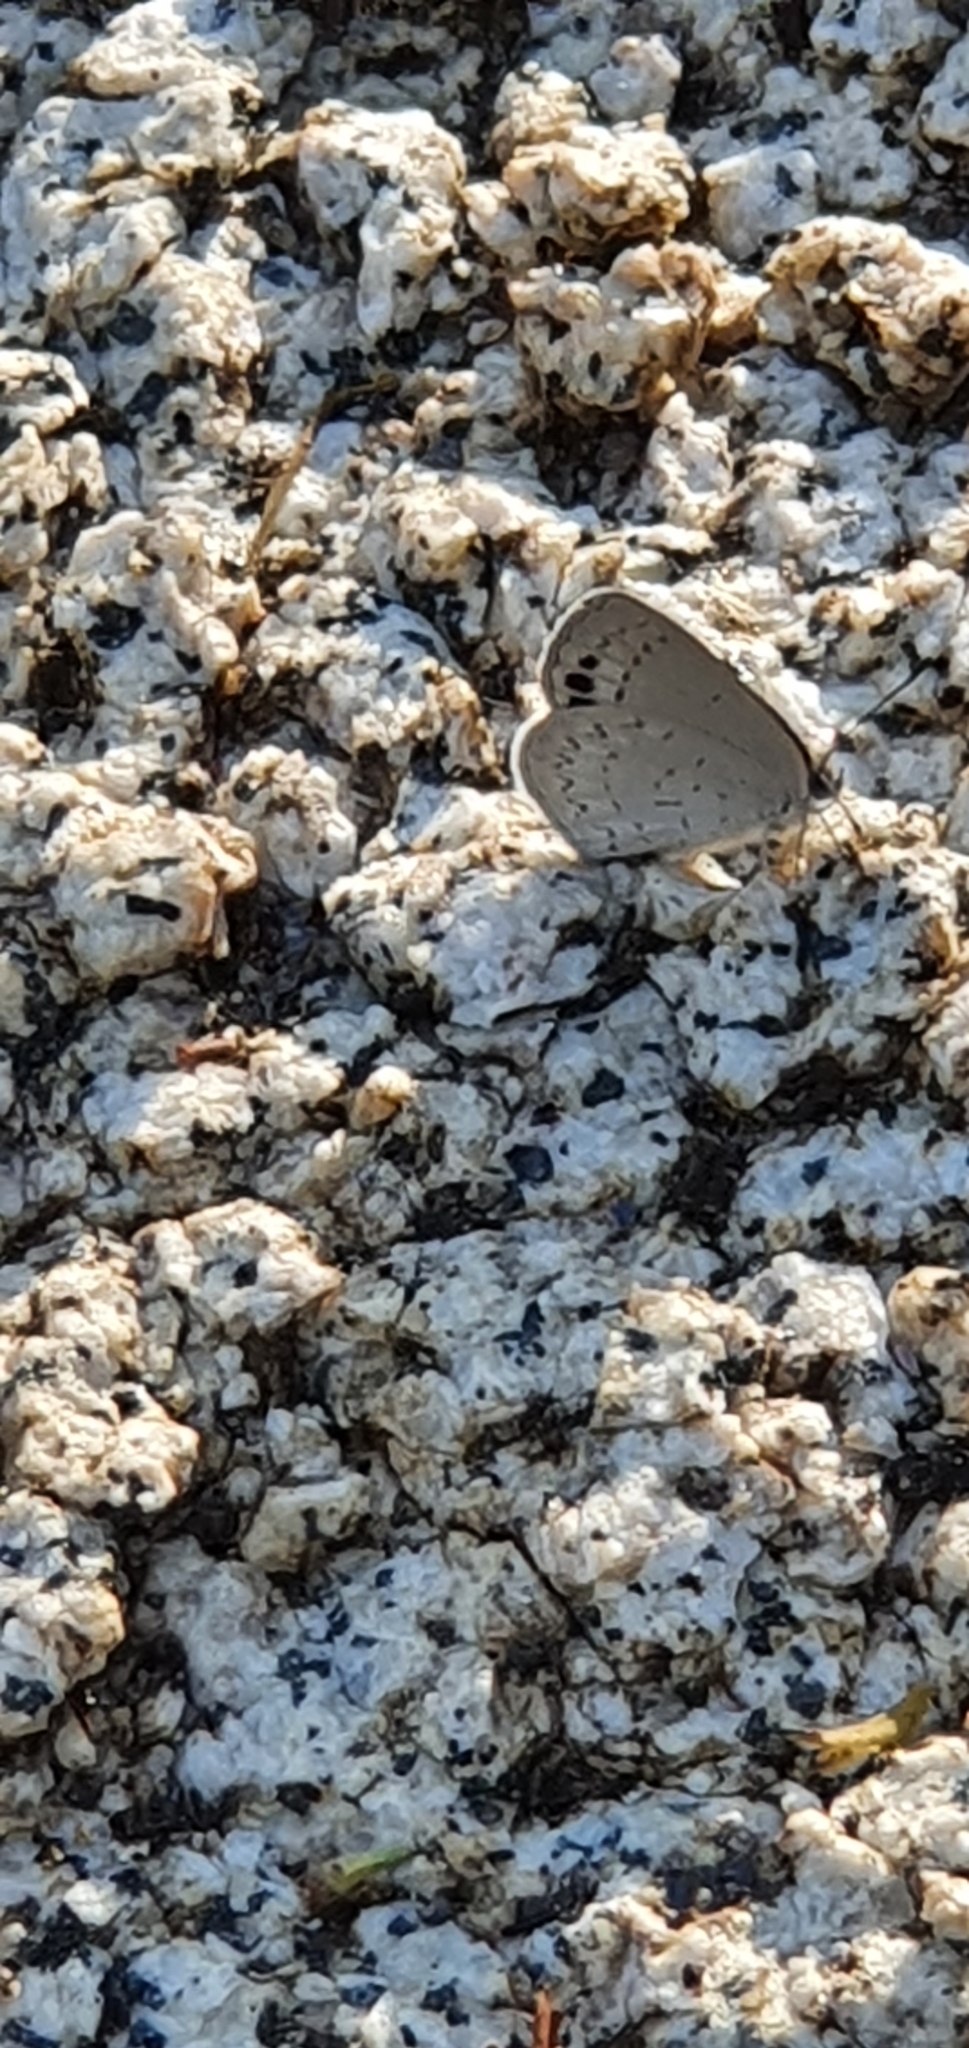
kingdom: Animalia
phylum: Arthropoda
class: Insecta
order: Lepidoptera
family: Lycaenidae
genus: Candalides
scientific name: Candalides
